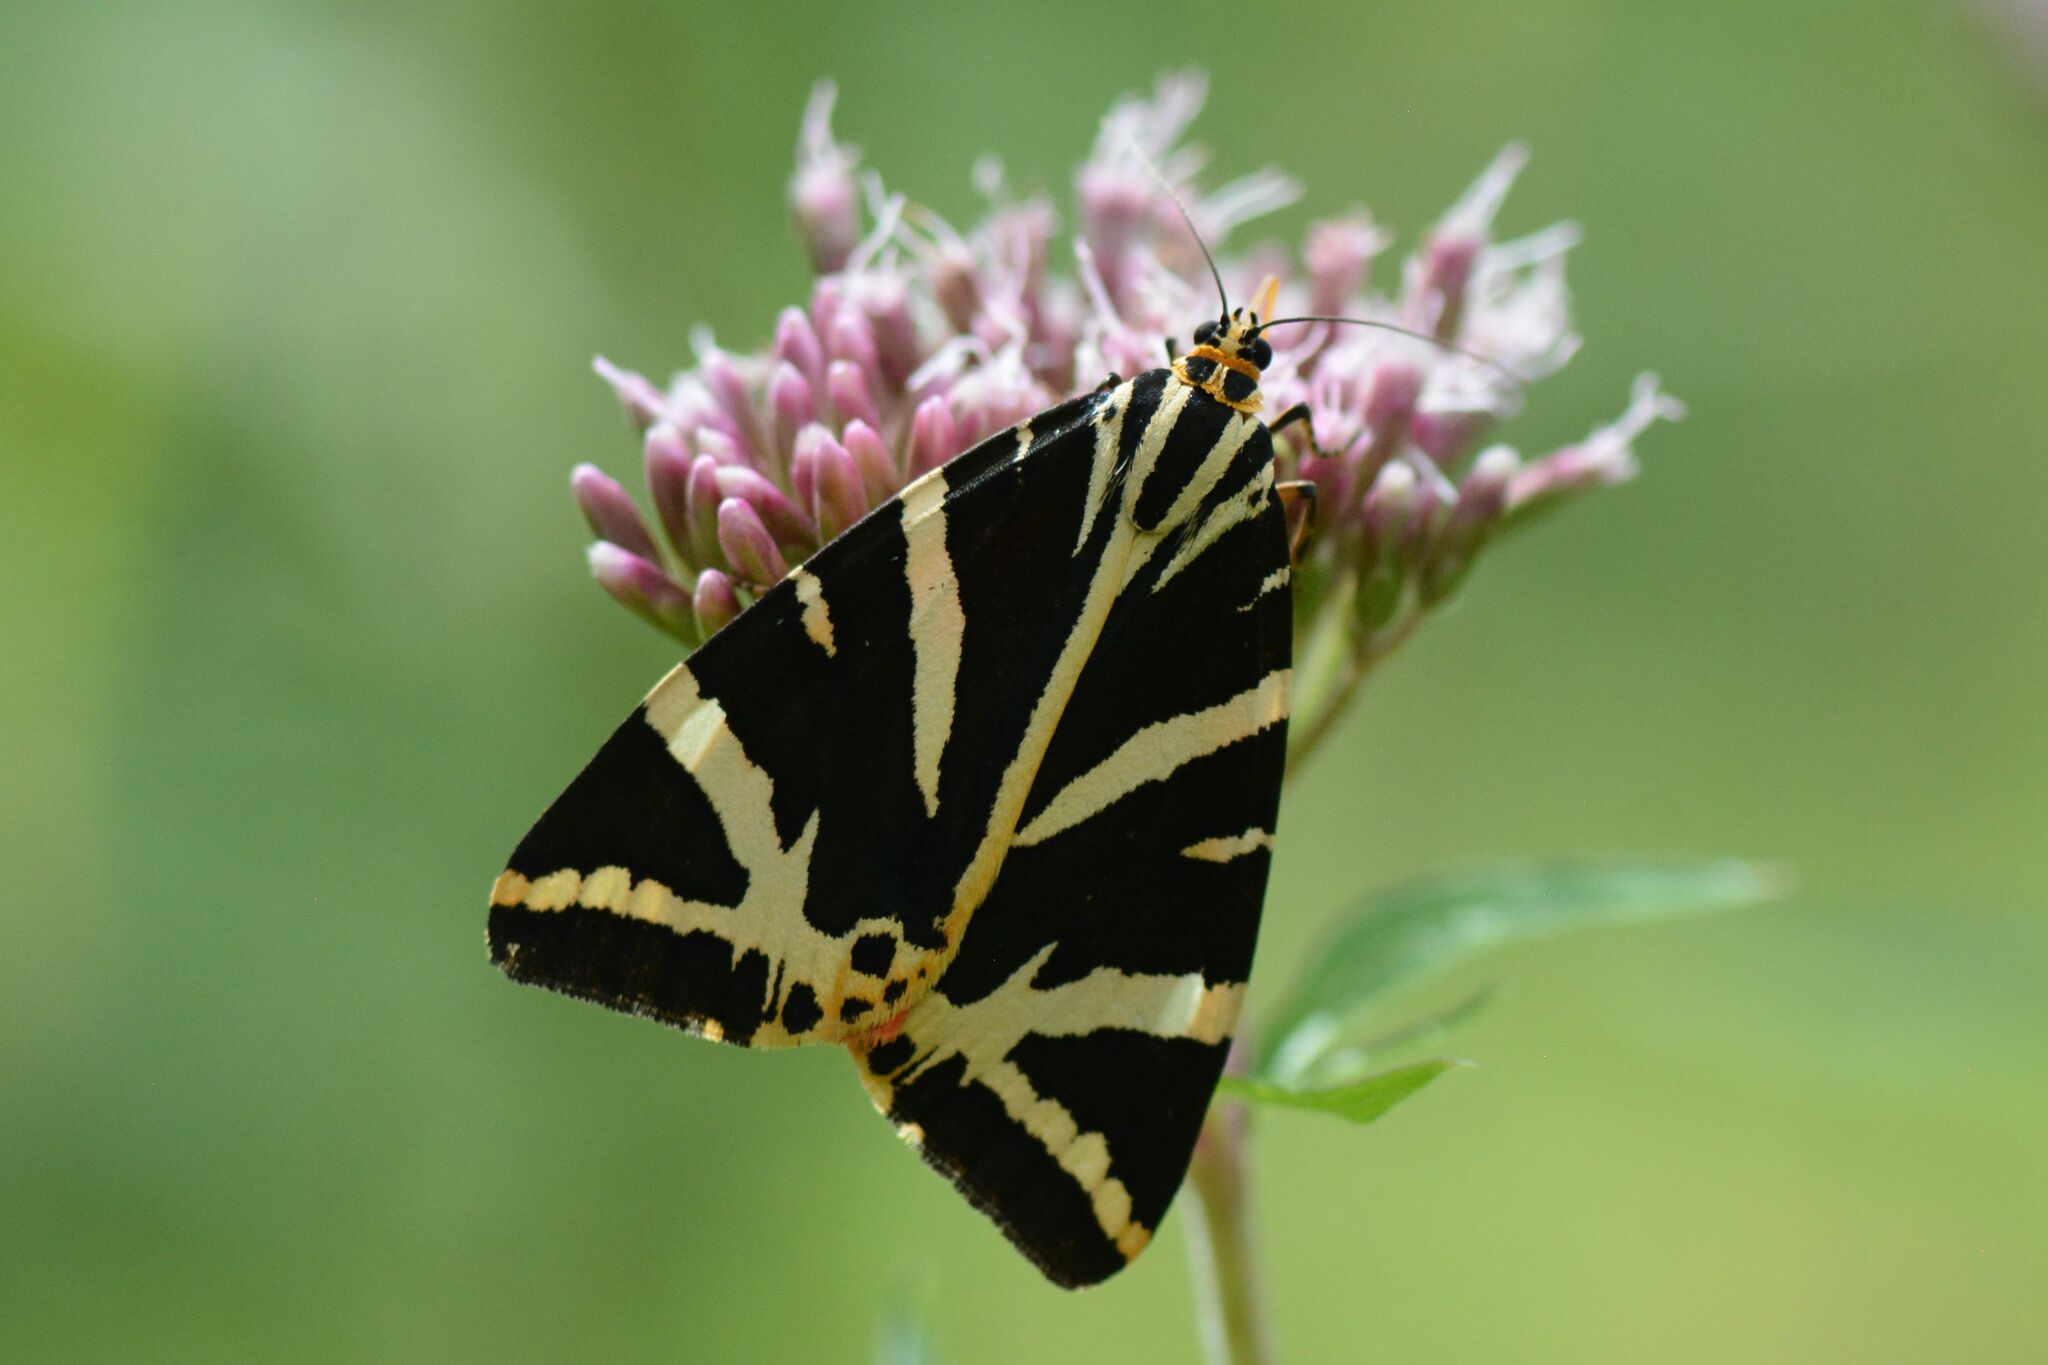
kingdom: Animalia
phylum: Arthropoda
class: Insecta
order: Lepidoptera
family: Erebidae
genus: Euplagia
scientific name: Euplagia quadripunctaria
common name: Jersey tiger
